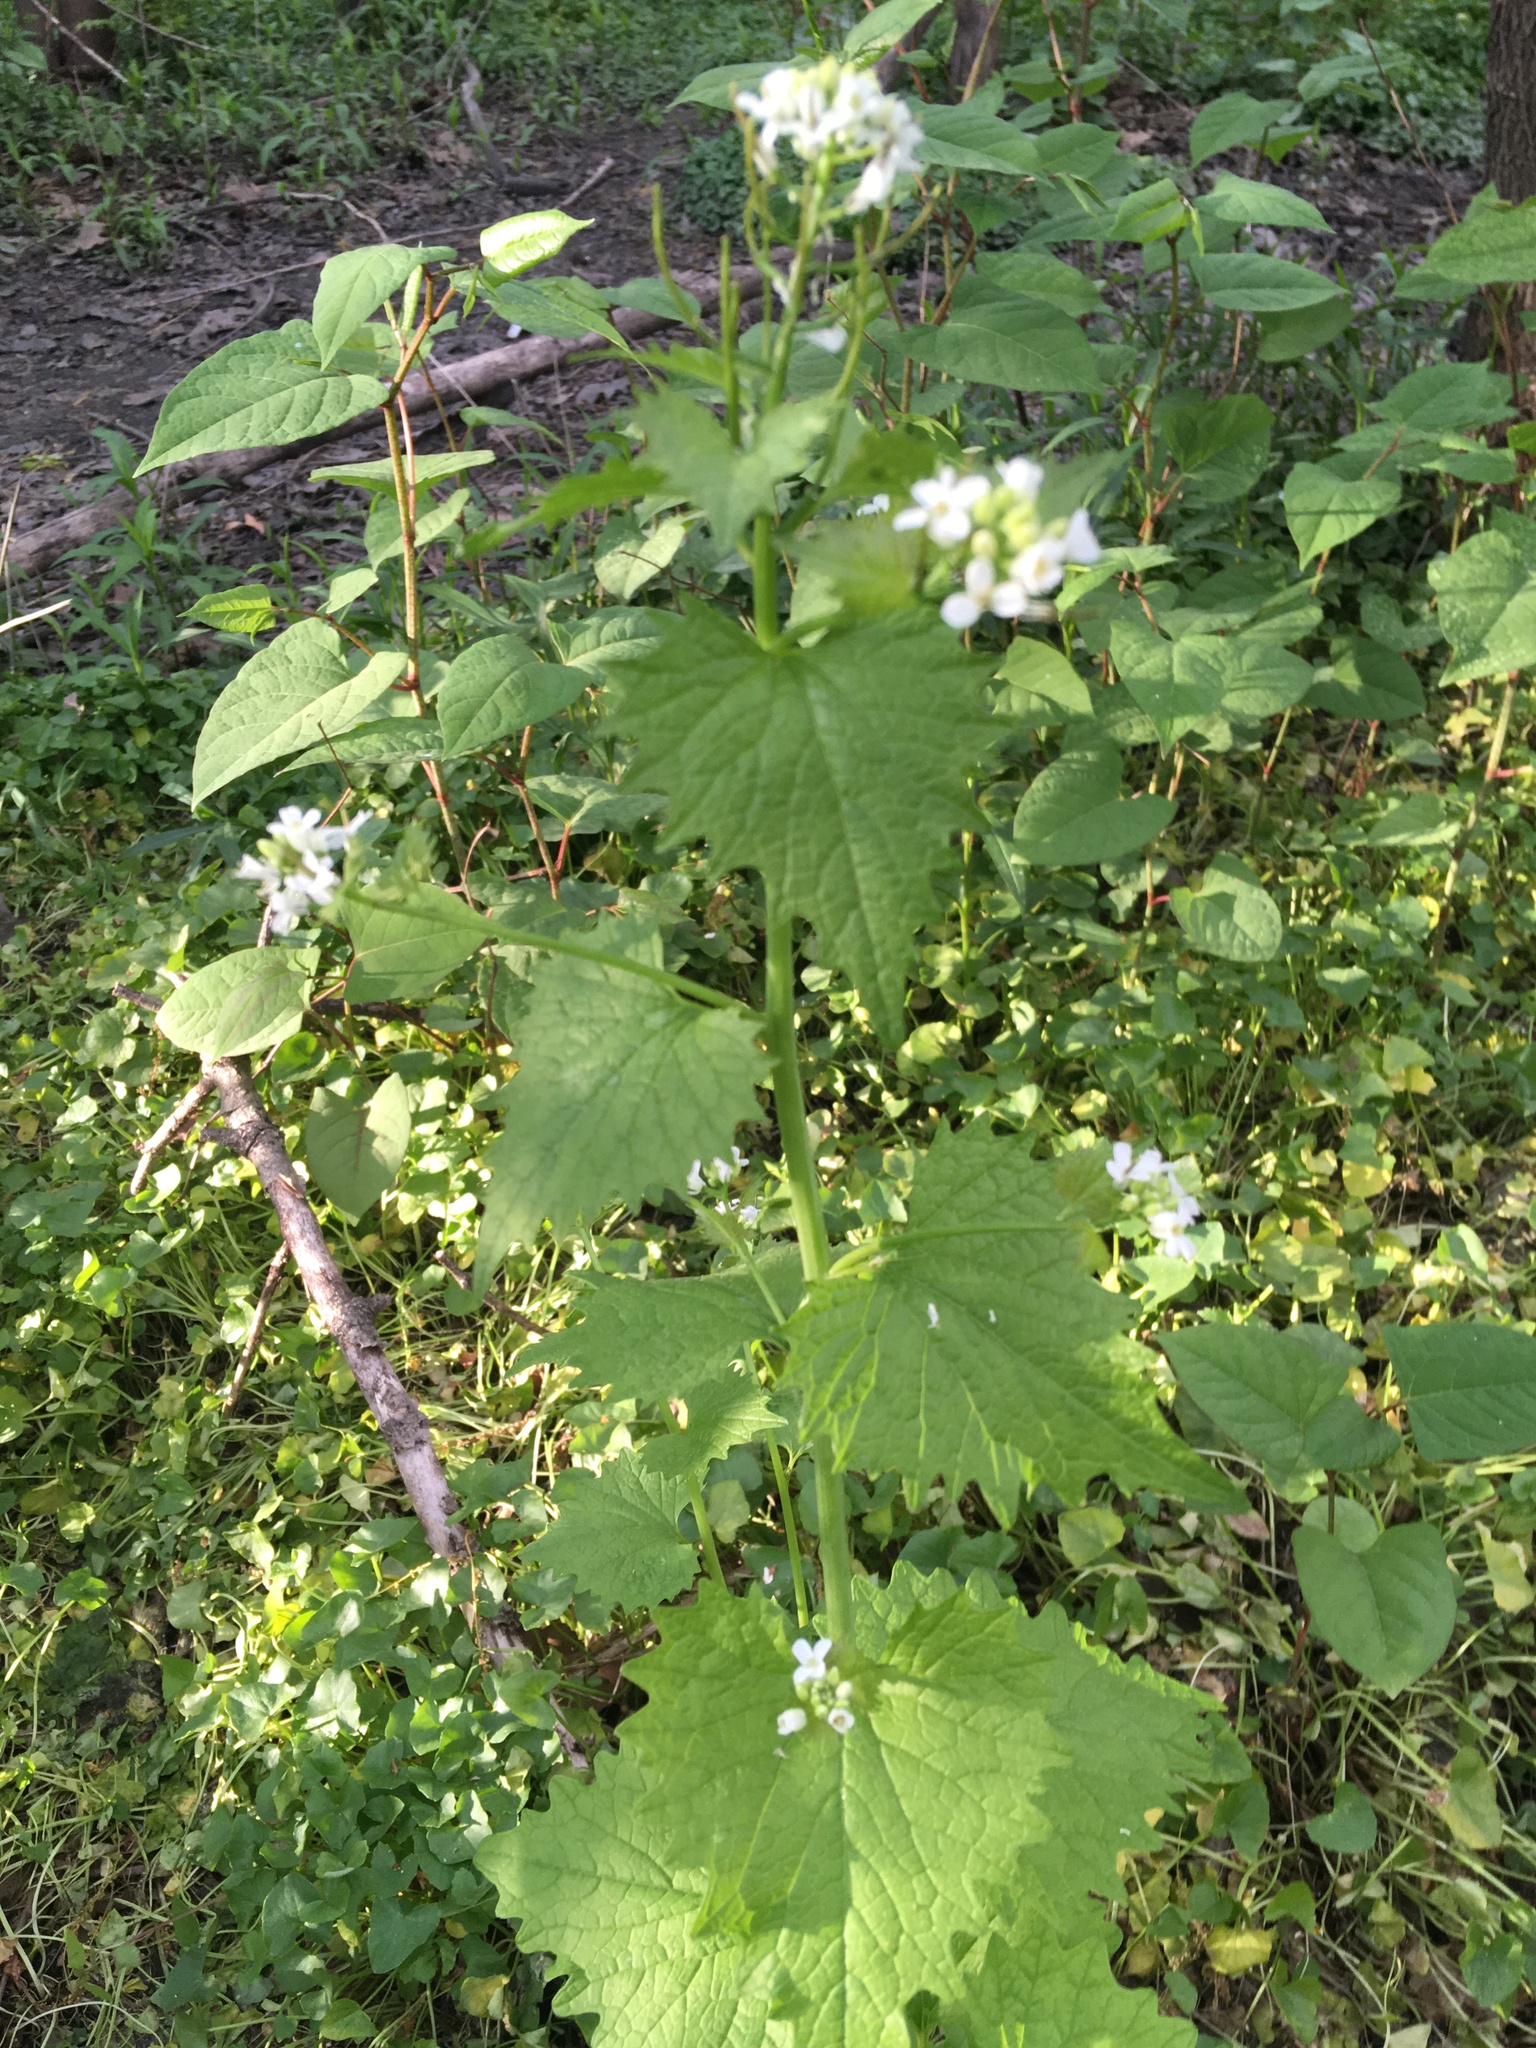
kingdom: Plantae
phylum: Tracheophyta
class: Magnoliopsida
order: Brassicales
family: Brassicaceae
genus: Alliaria
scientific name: Alliaria petiolata
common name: Garlic mustard
